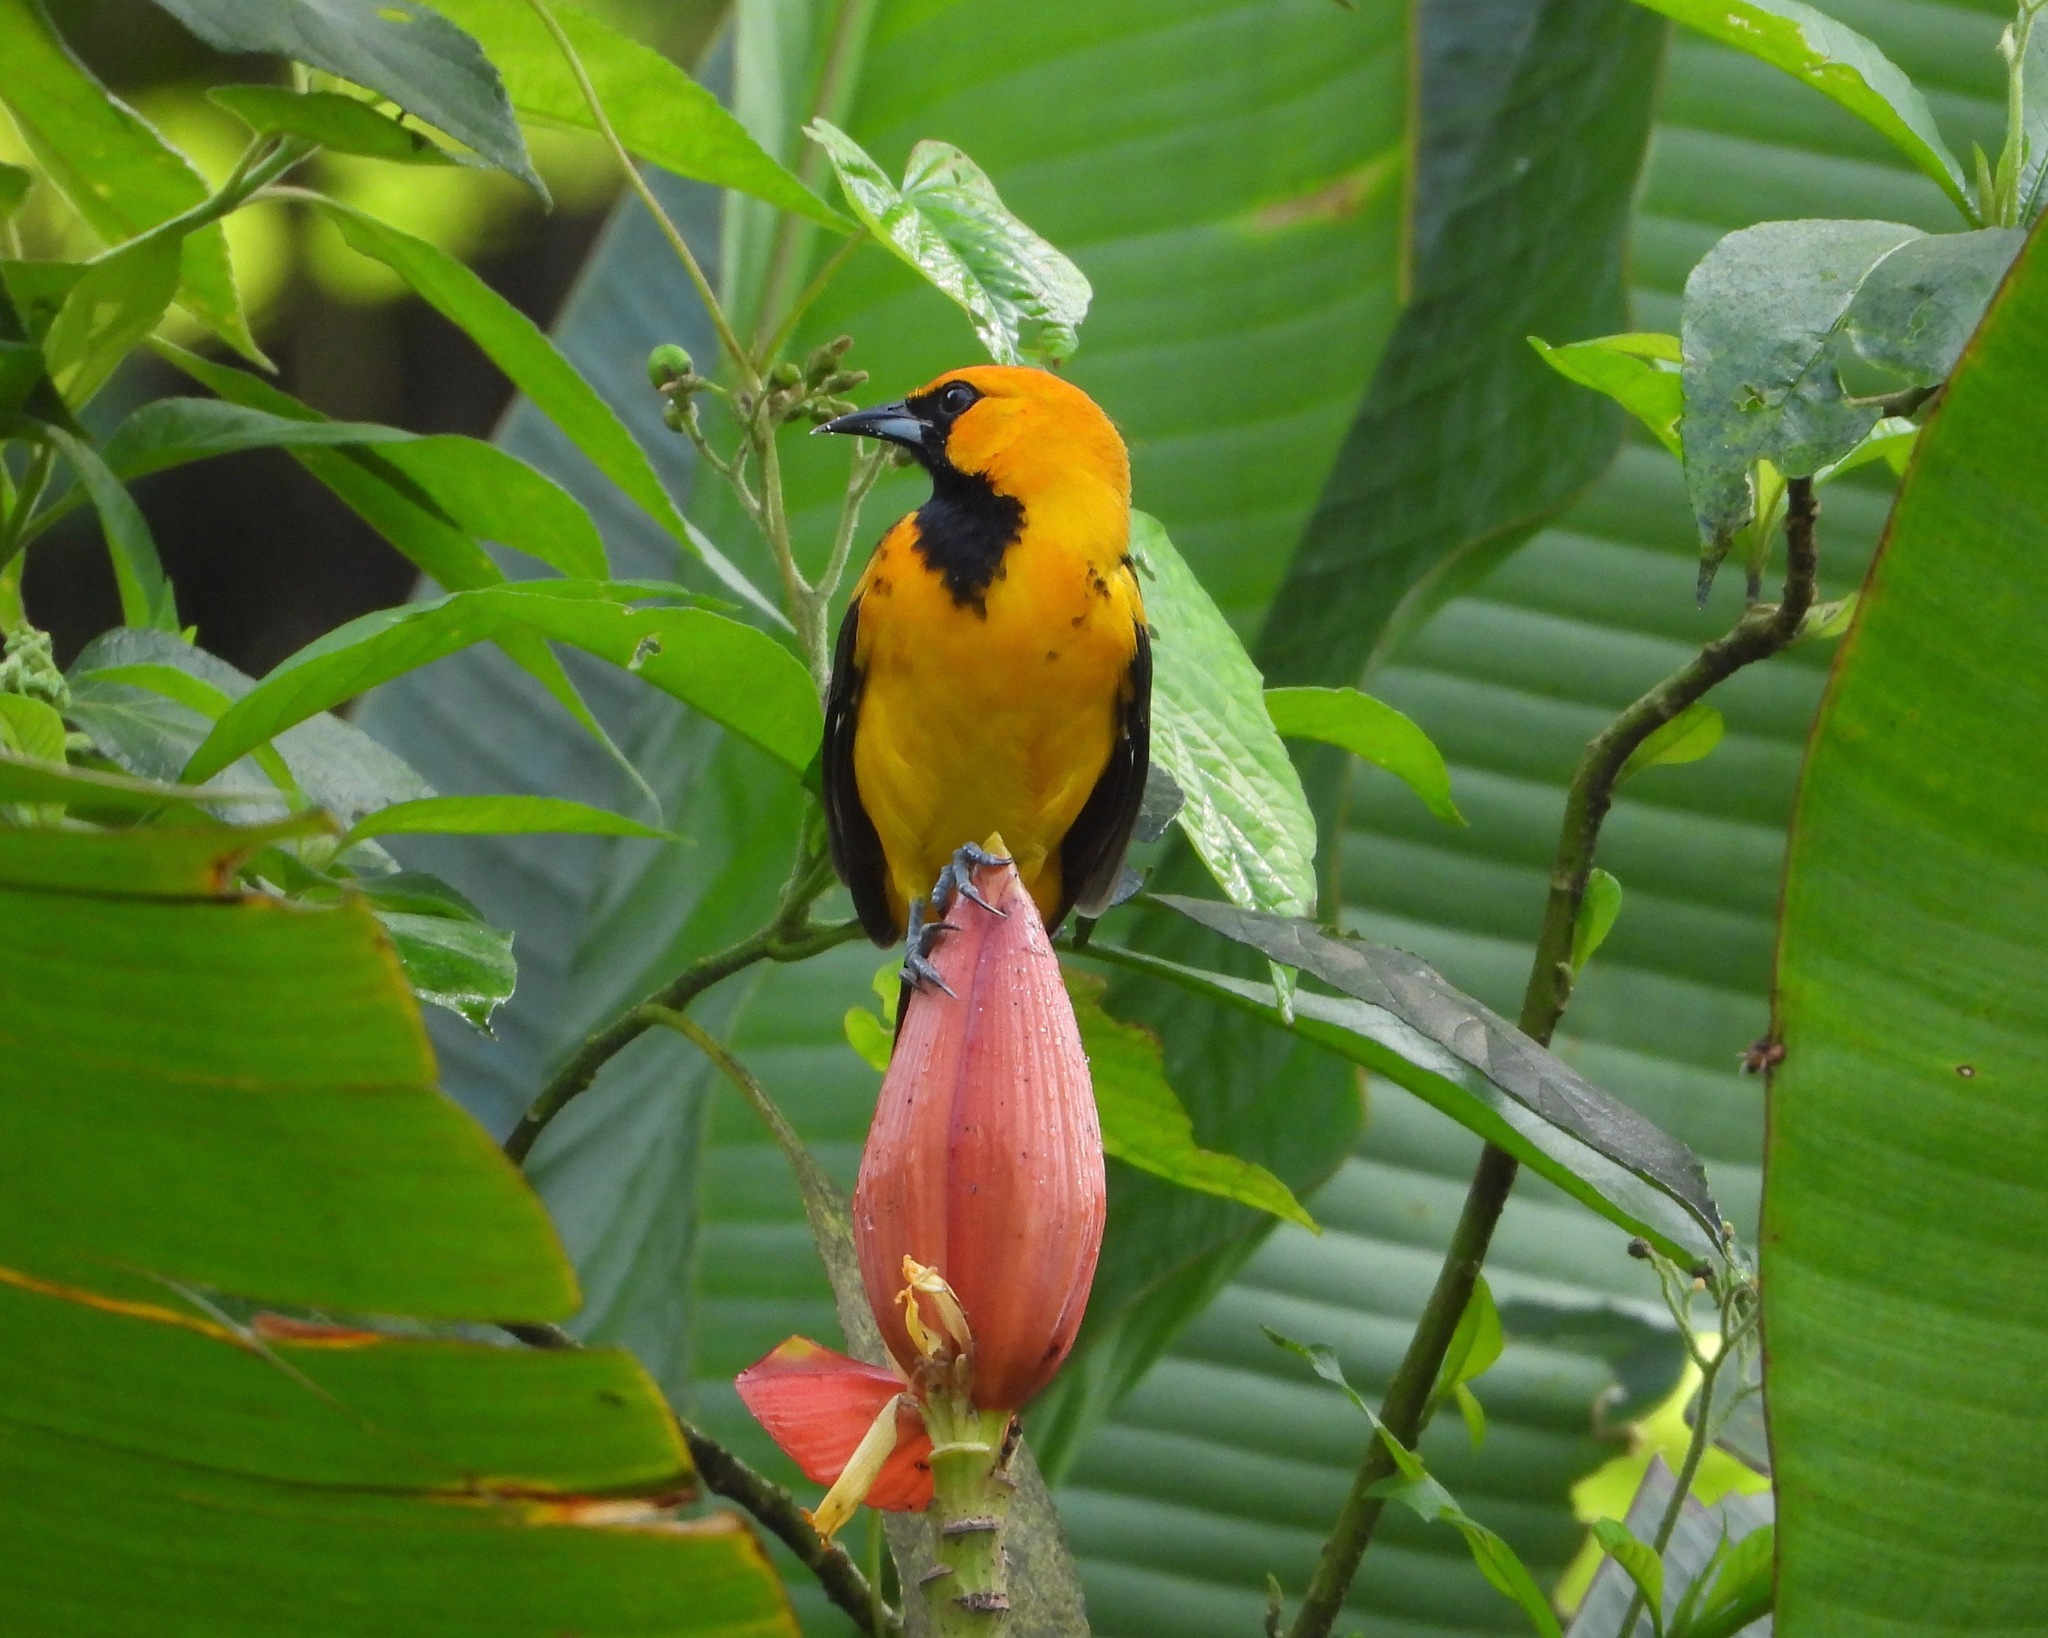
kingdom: Animalia
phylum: Chordata
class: Aves
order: Passeriformes
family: Icteridae
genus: Icterus
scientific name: Icterus pectoralis
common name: Spot-breasted oriole
